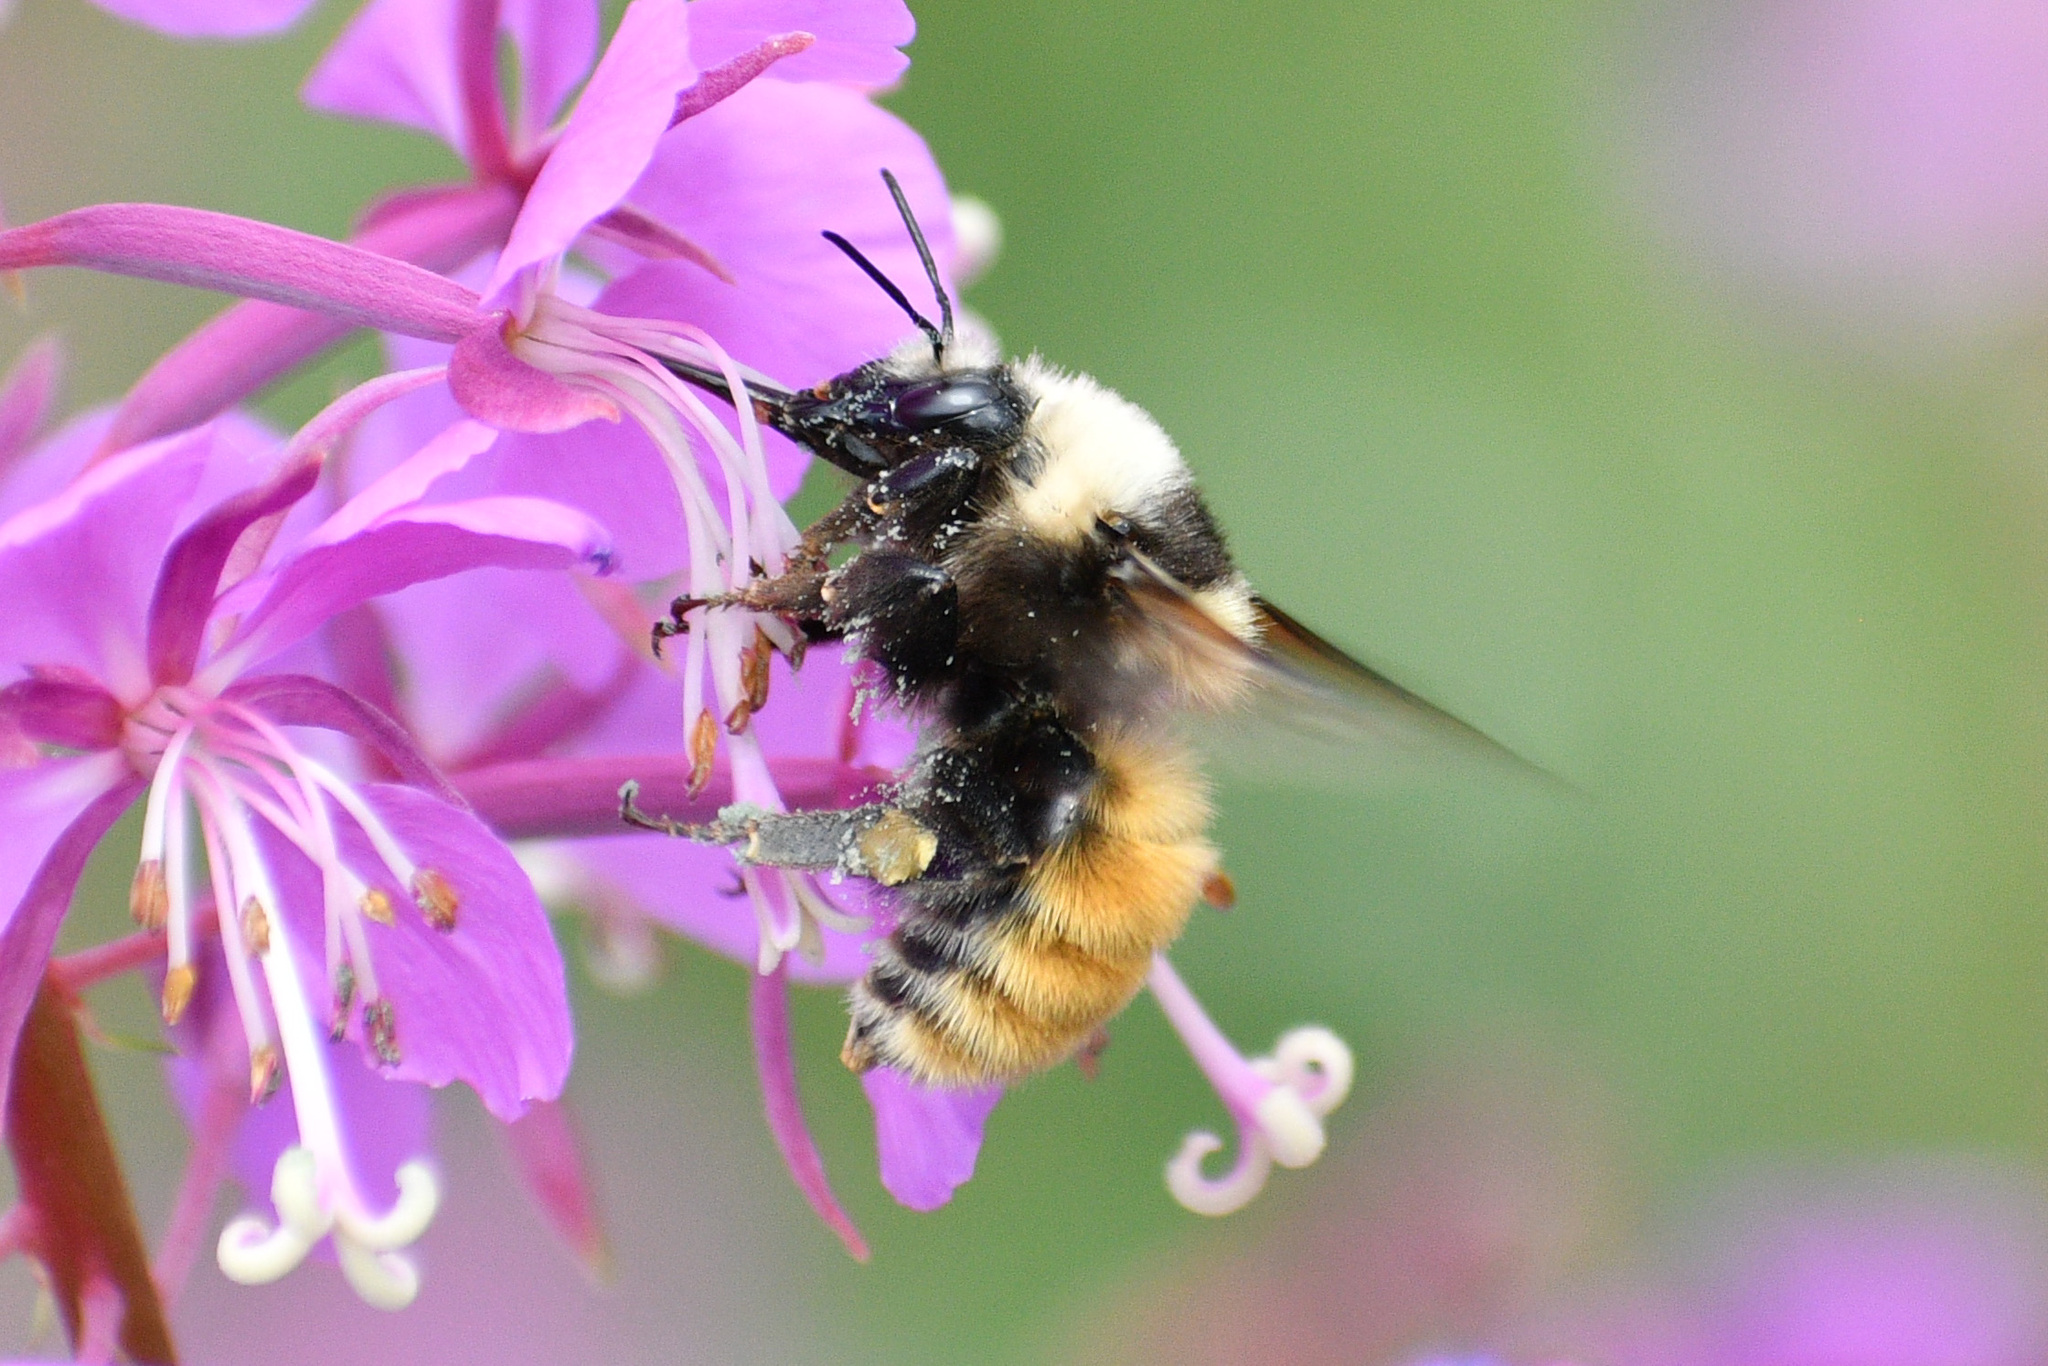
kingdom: Animalia
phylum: Arthropoda
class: Insecta
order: Hymenoptera
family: Apidae
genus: Bombus
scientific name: Bombus appositus
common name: White-shouldered bumble bee
